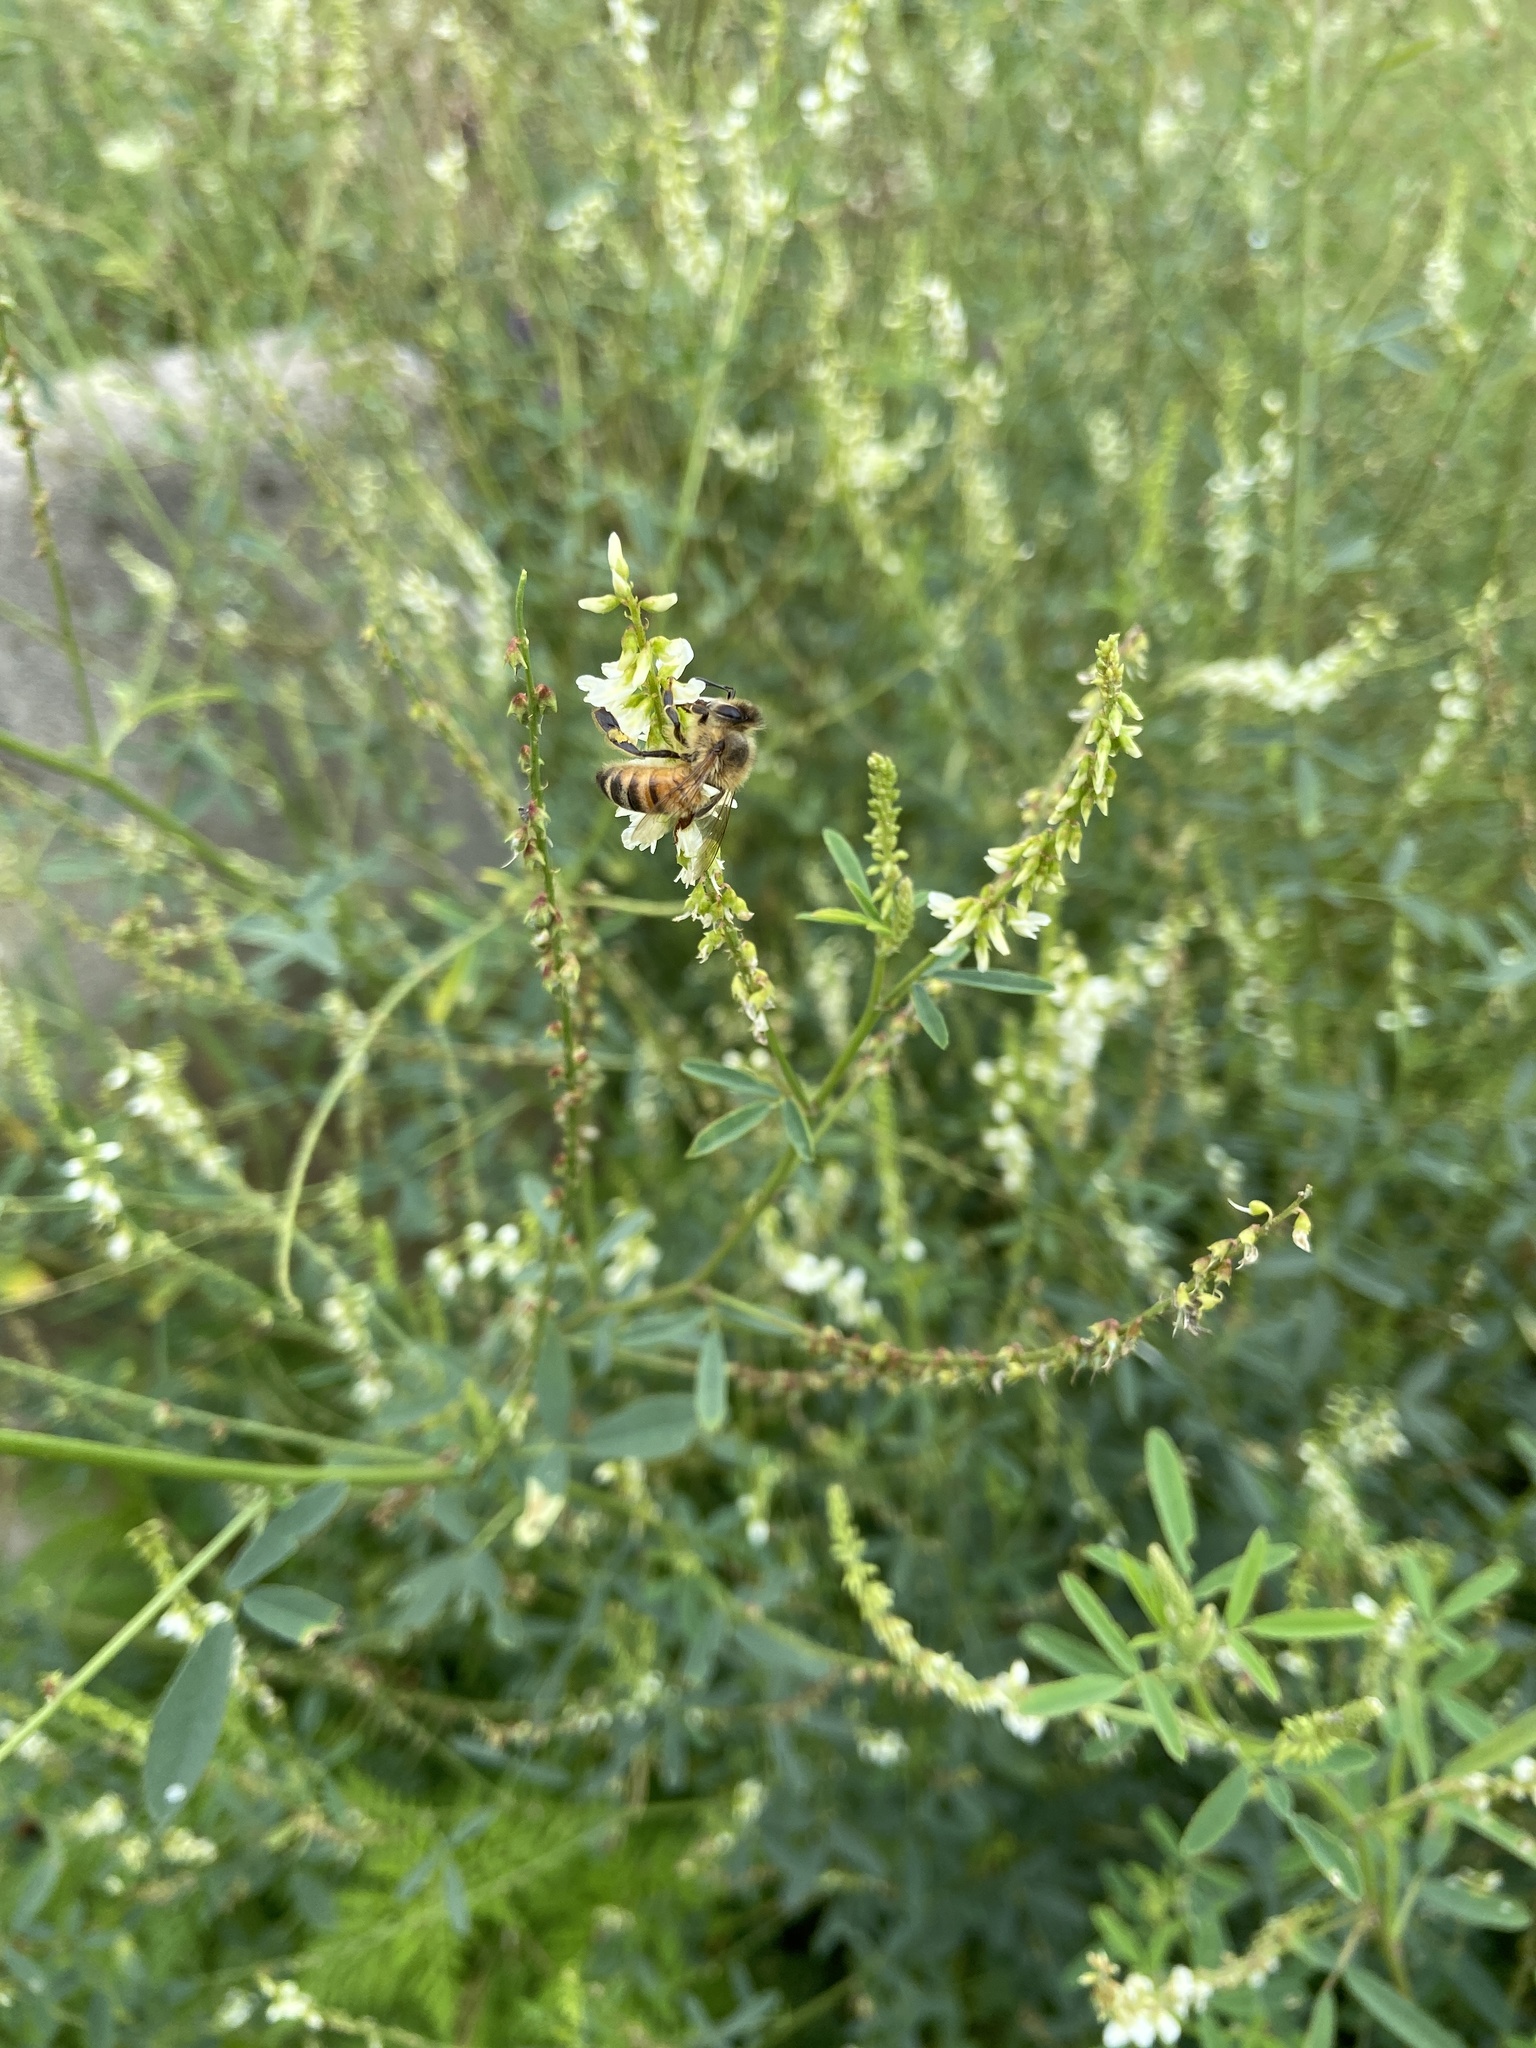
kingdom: Animalia
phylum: Arthropoda
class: Insecta
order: Hymenoptera
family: Apidae
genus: Apis
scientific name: Apis mellifera
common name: Honey bee
